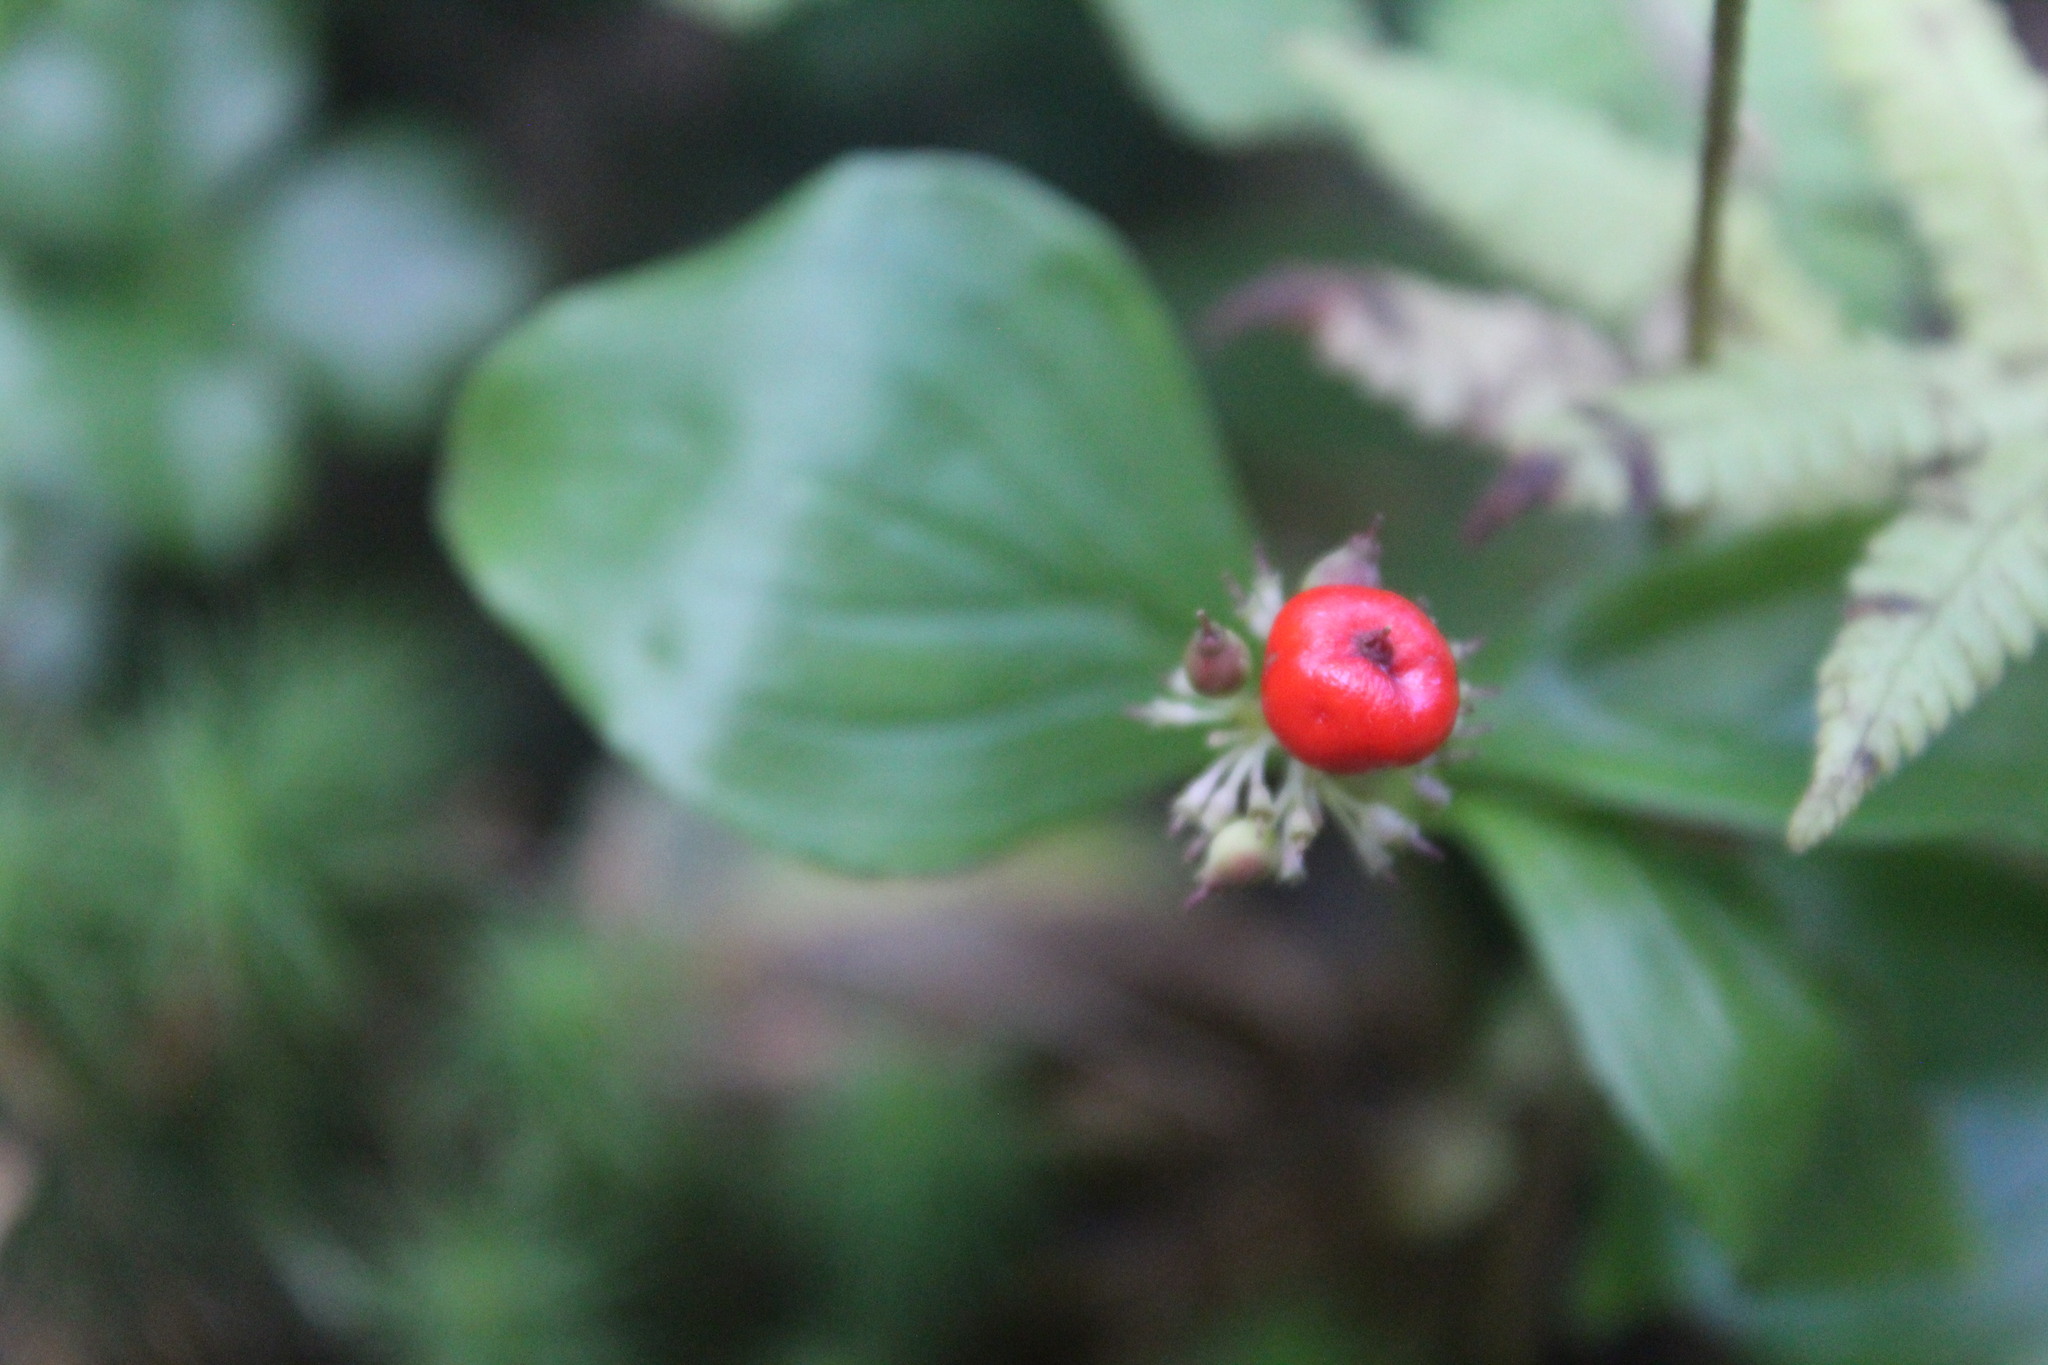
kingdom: Plantae
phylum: Tracheophyta
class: Magnoliopsida
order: Cornales
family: Cornaceae
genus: Cornus
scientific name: Cornus canadensis
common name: Creeping dogwood
